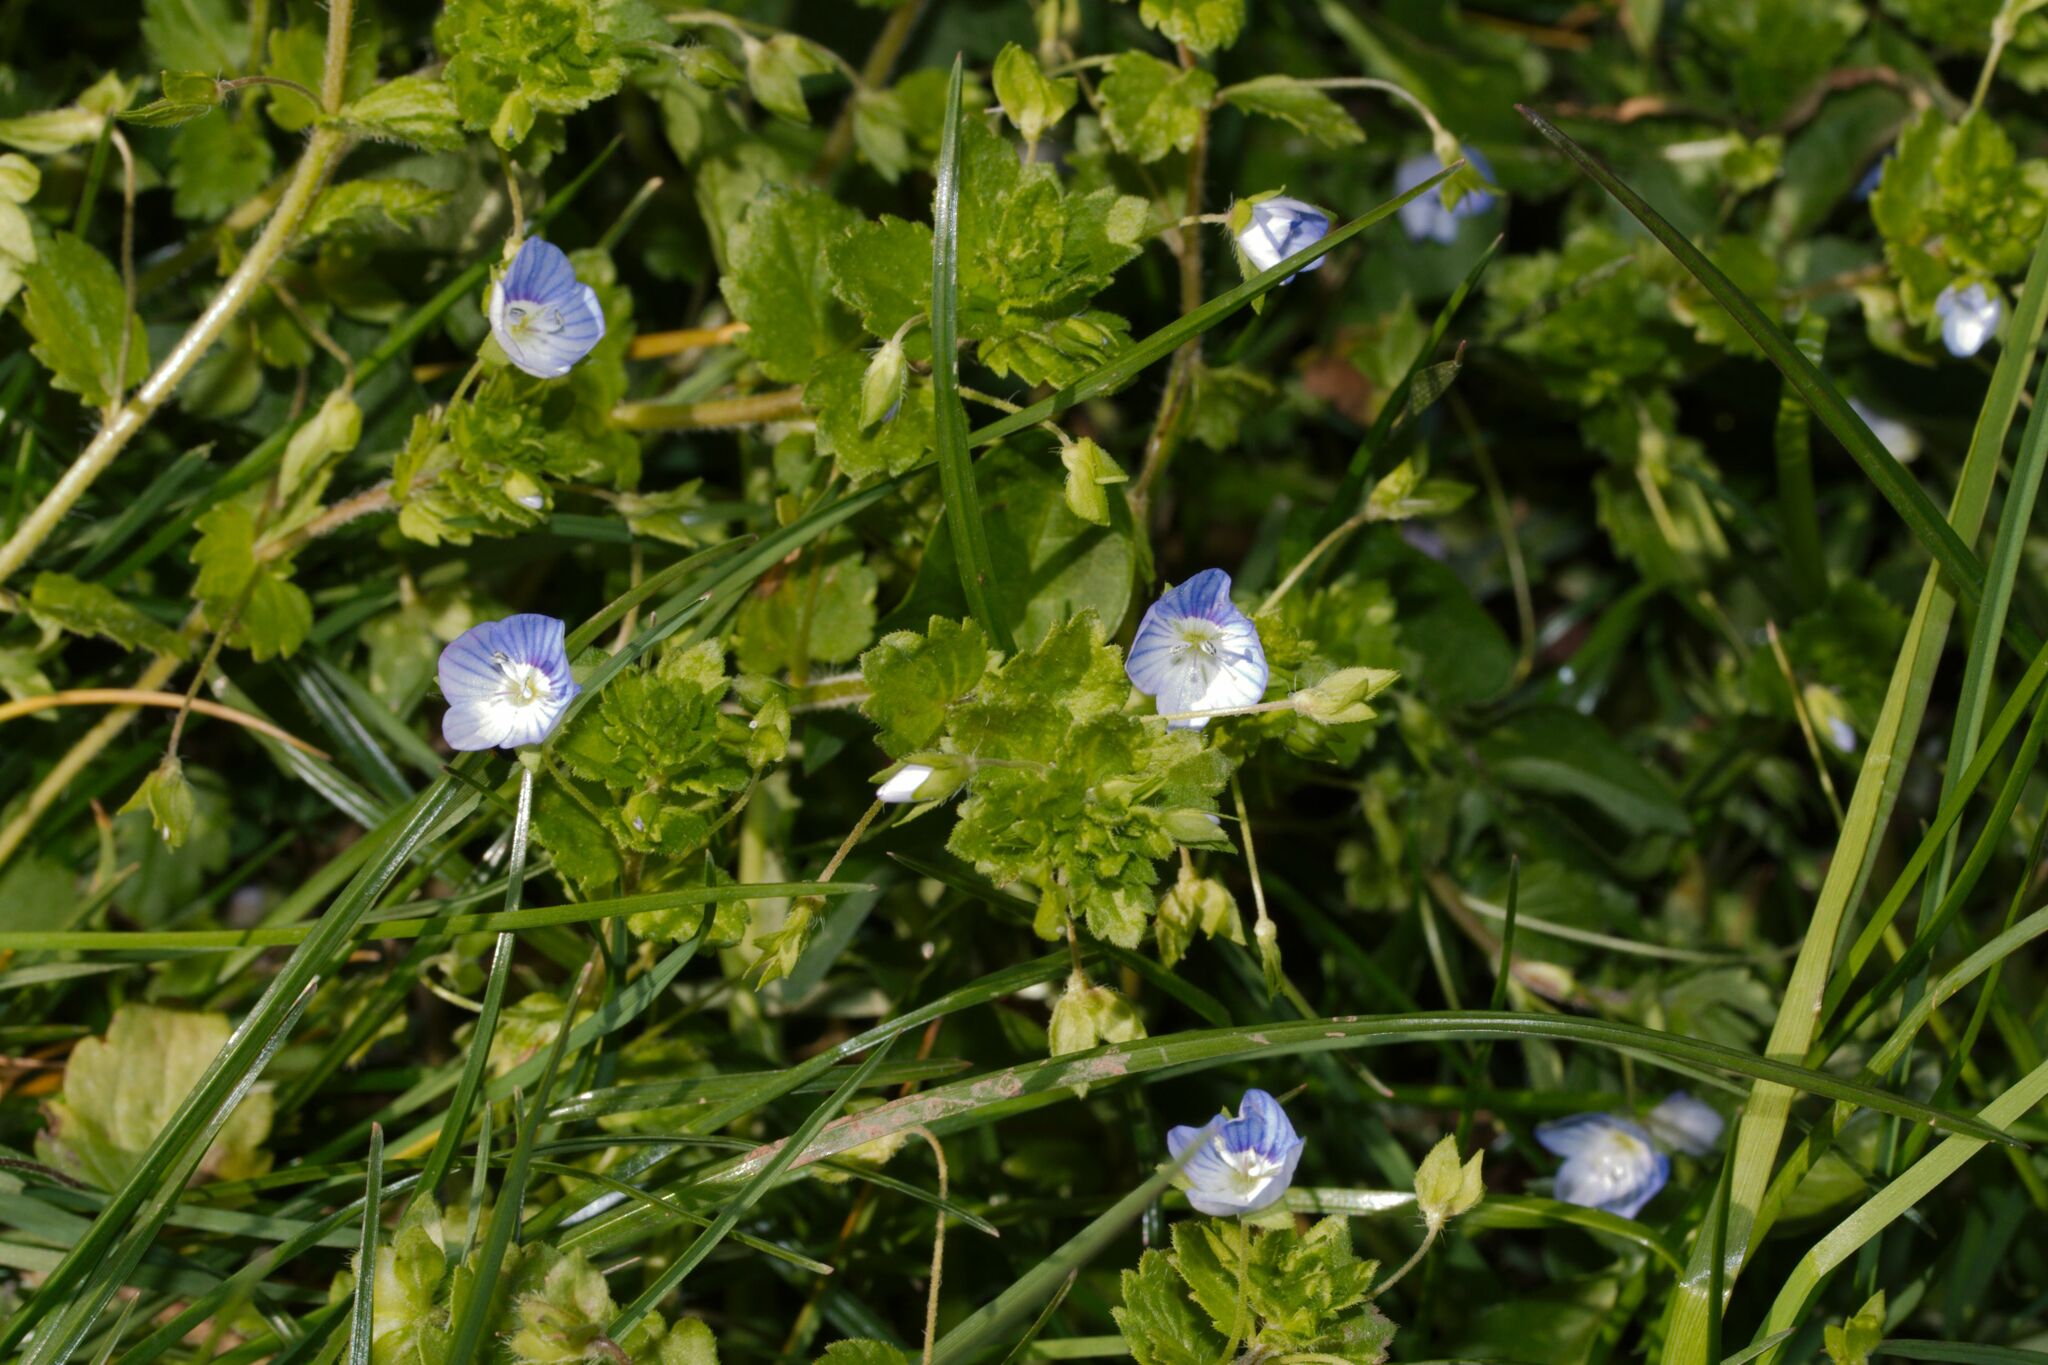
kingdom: Plantae
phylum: Tracheophyta
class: Magnoliopsida
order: Lamiales
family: Plantaginaceae
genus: Veronica
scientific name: Veronica persica
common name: Common field-speedwell
